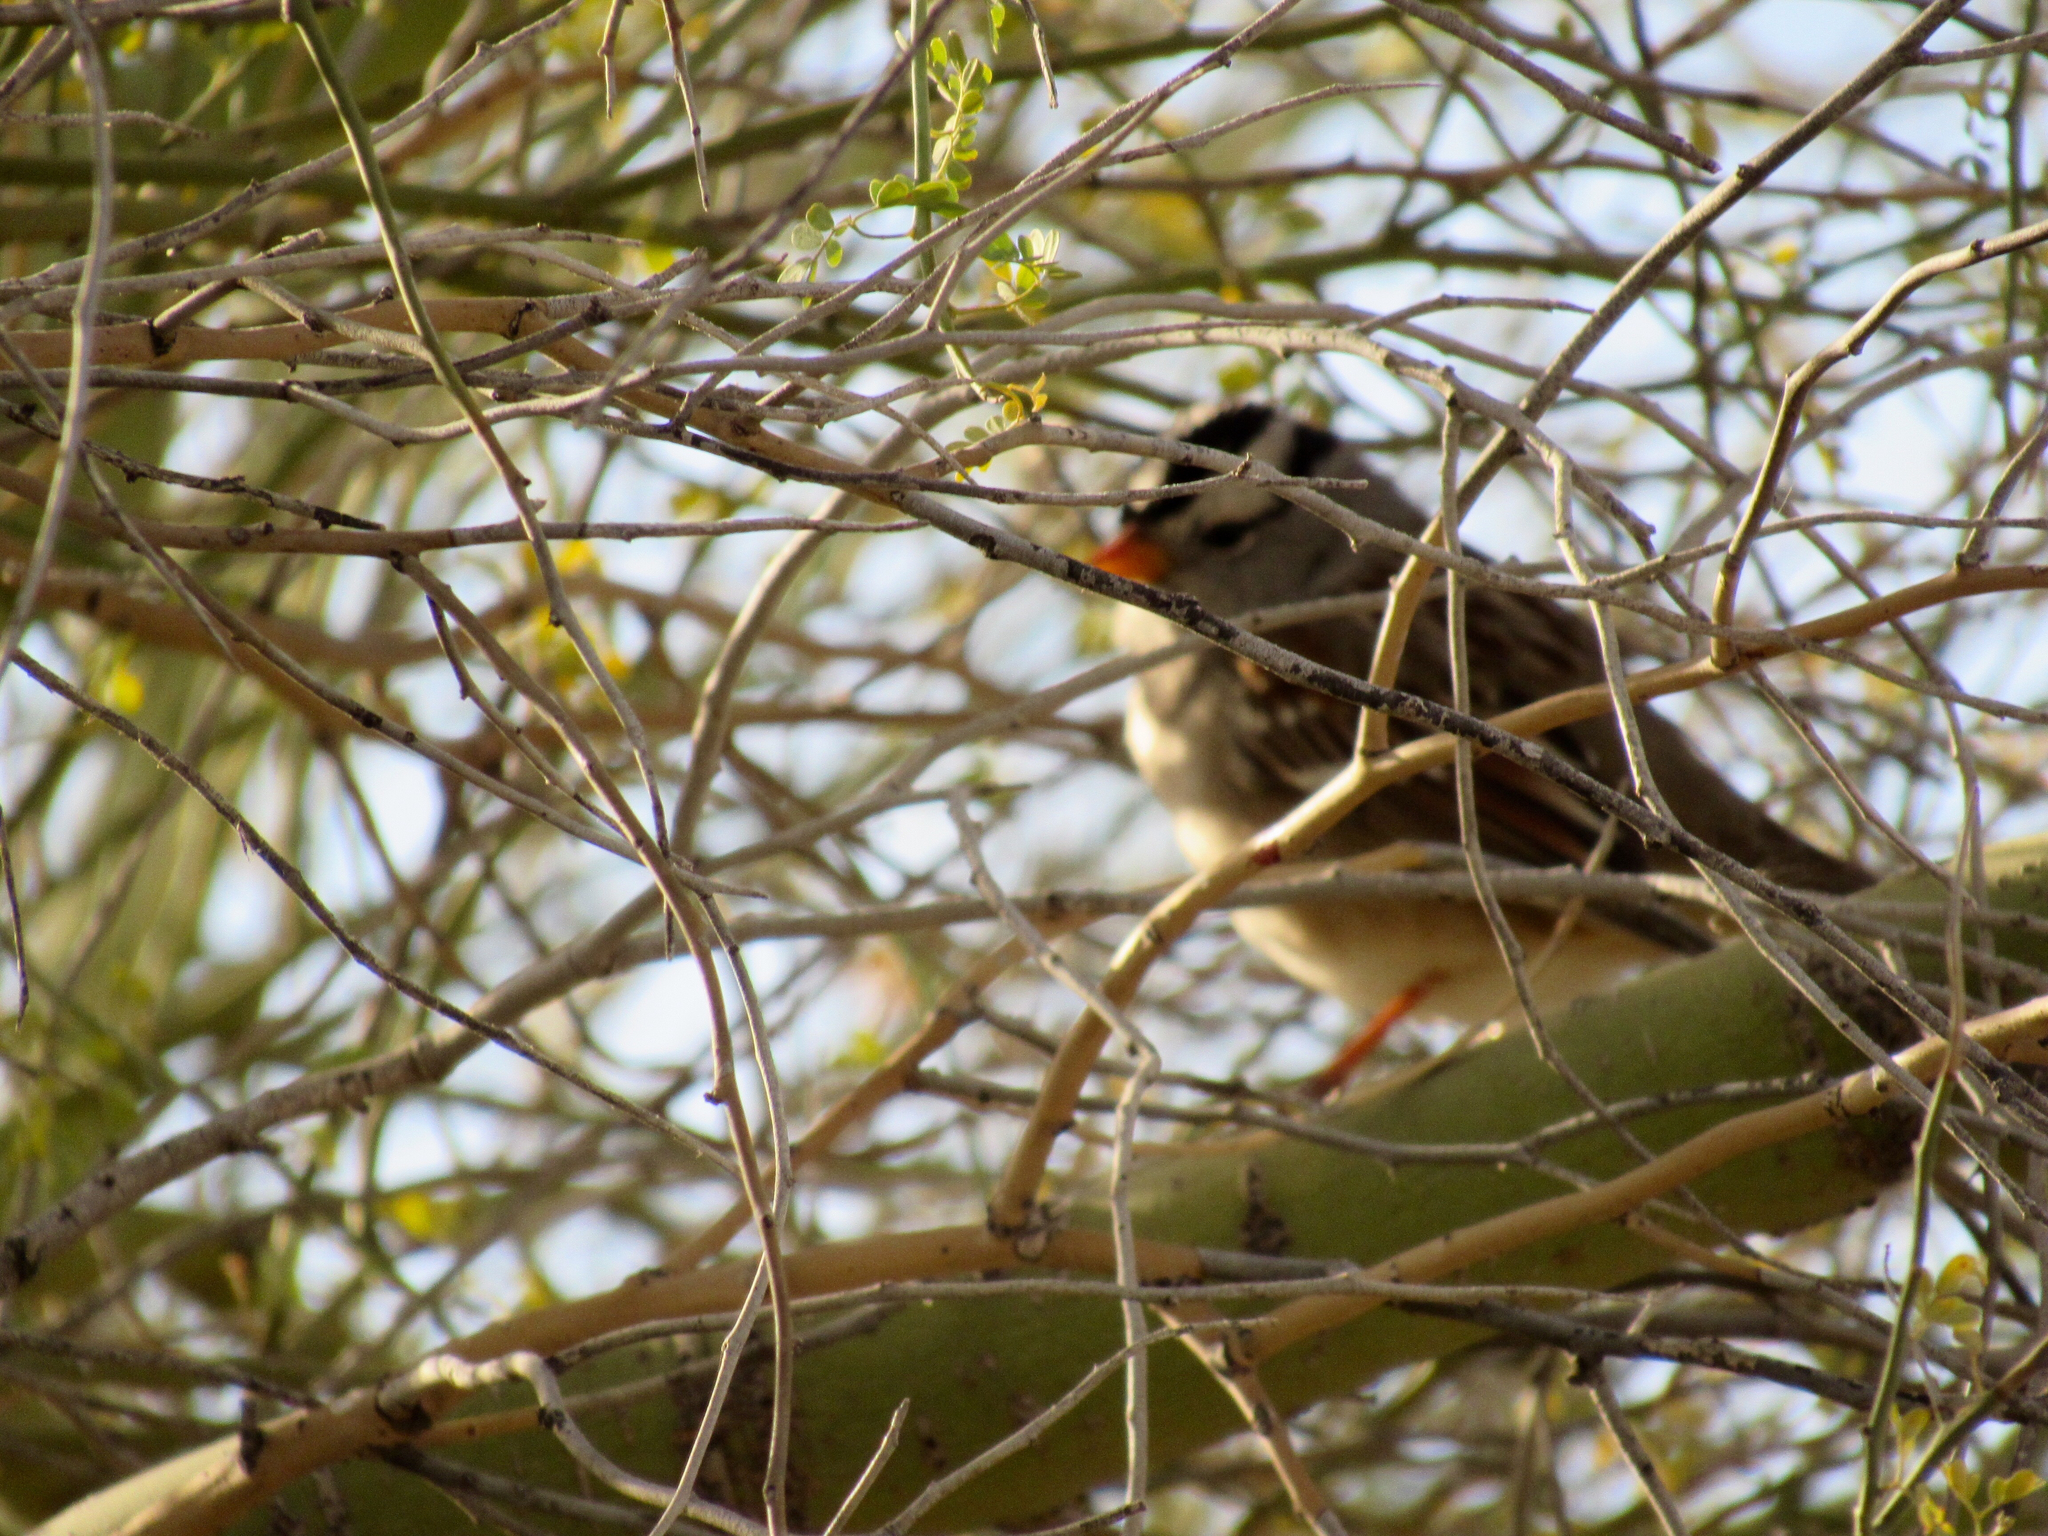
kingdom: Animalia
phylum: Chordata
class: Aves
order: Passeriformes
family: Passerellidae
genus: Zonotrichia
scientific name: Zonotrichia leucophrys
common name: White-crowned sparrow
